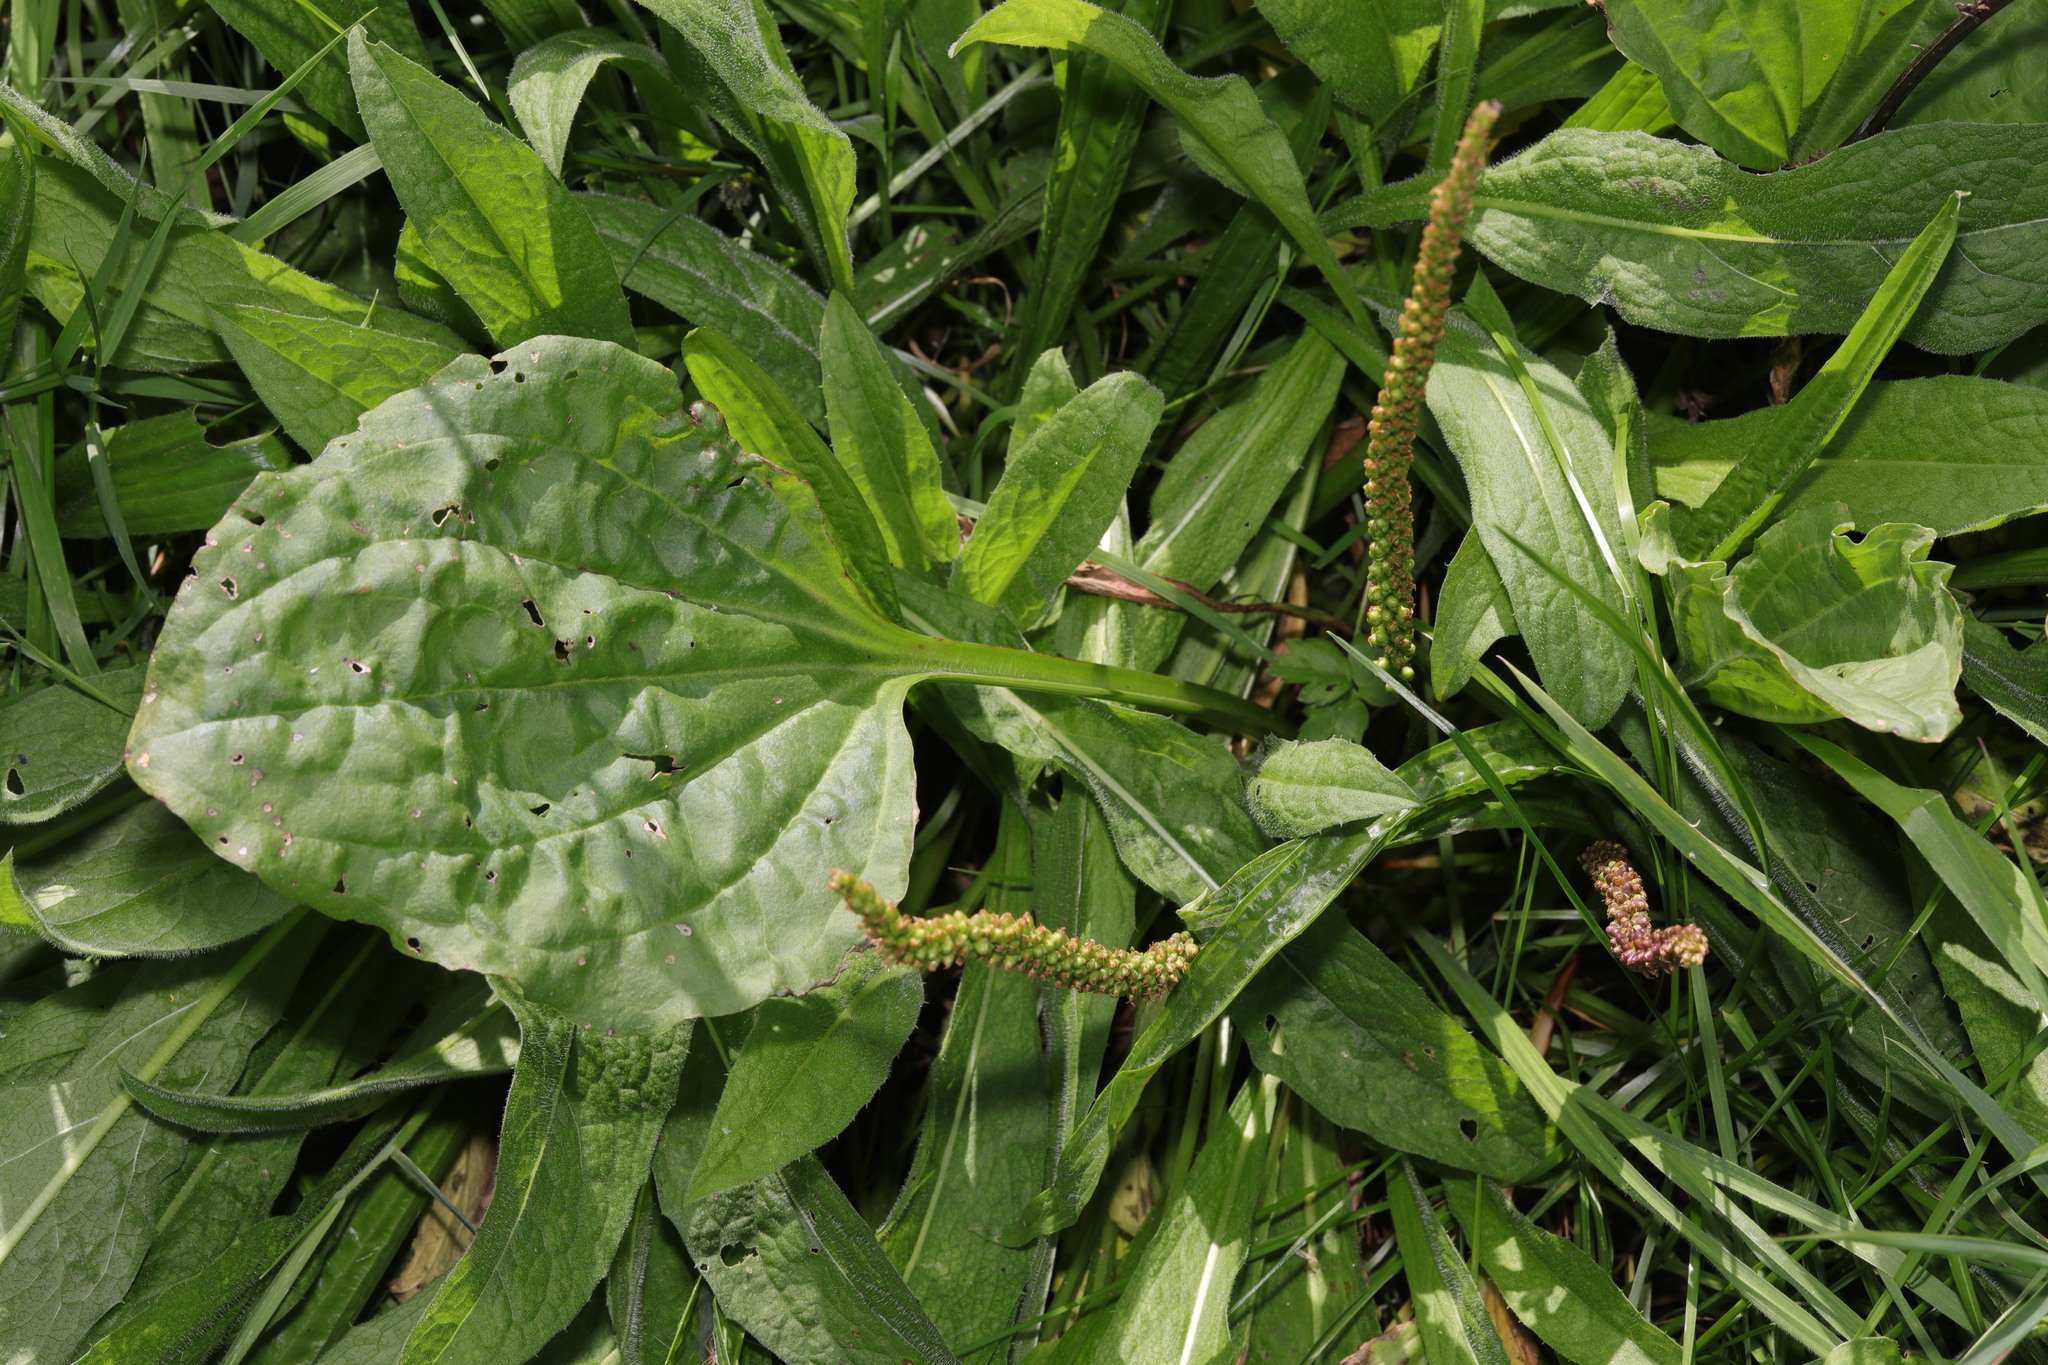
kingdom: Plantae
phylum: Tracheophyta
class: Magnoliopsida
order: Lamiales
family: Plantaginaceae
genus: Plantago
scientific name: Plantago major
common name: Common plantain
